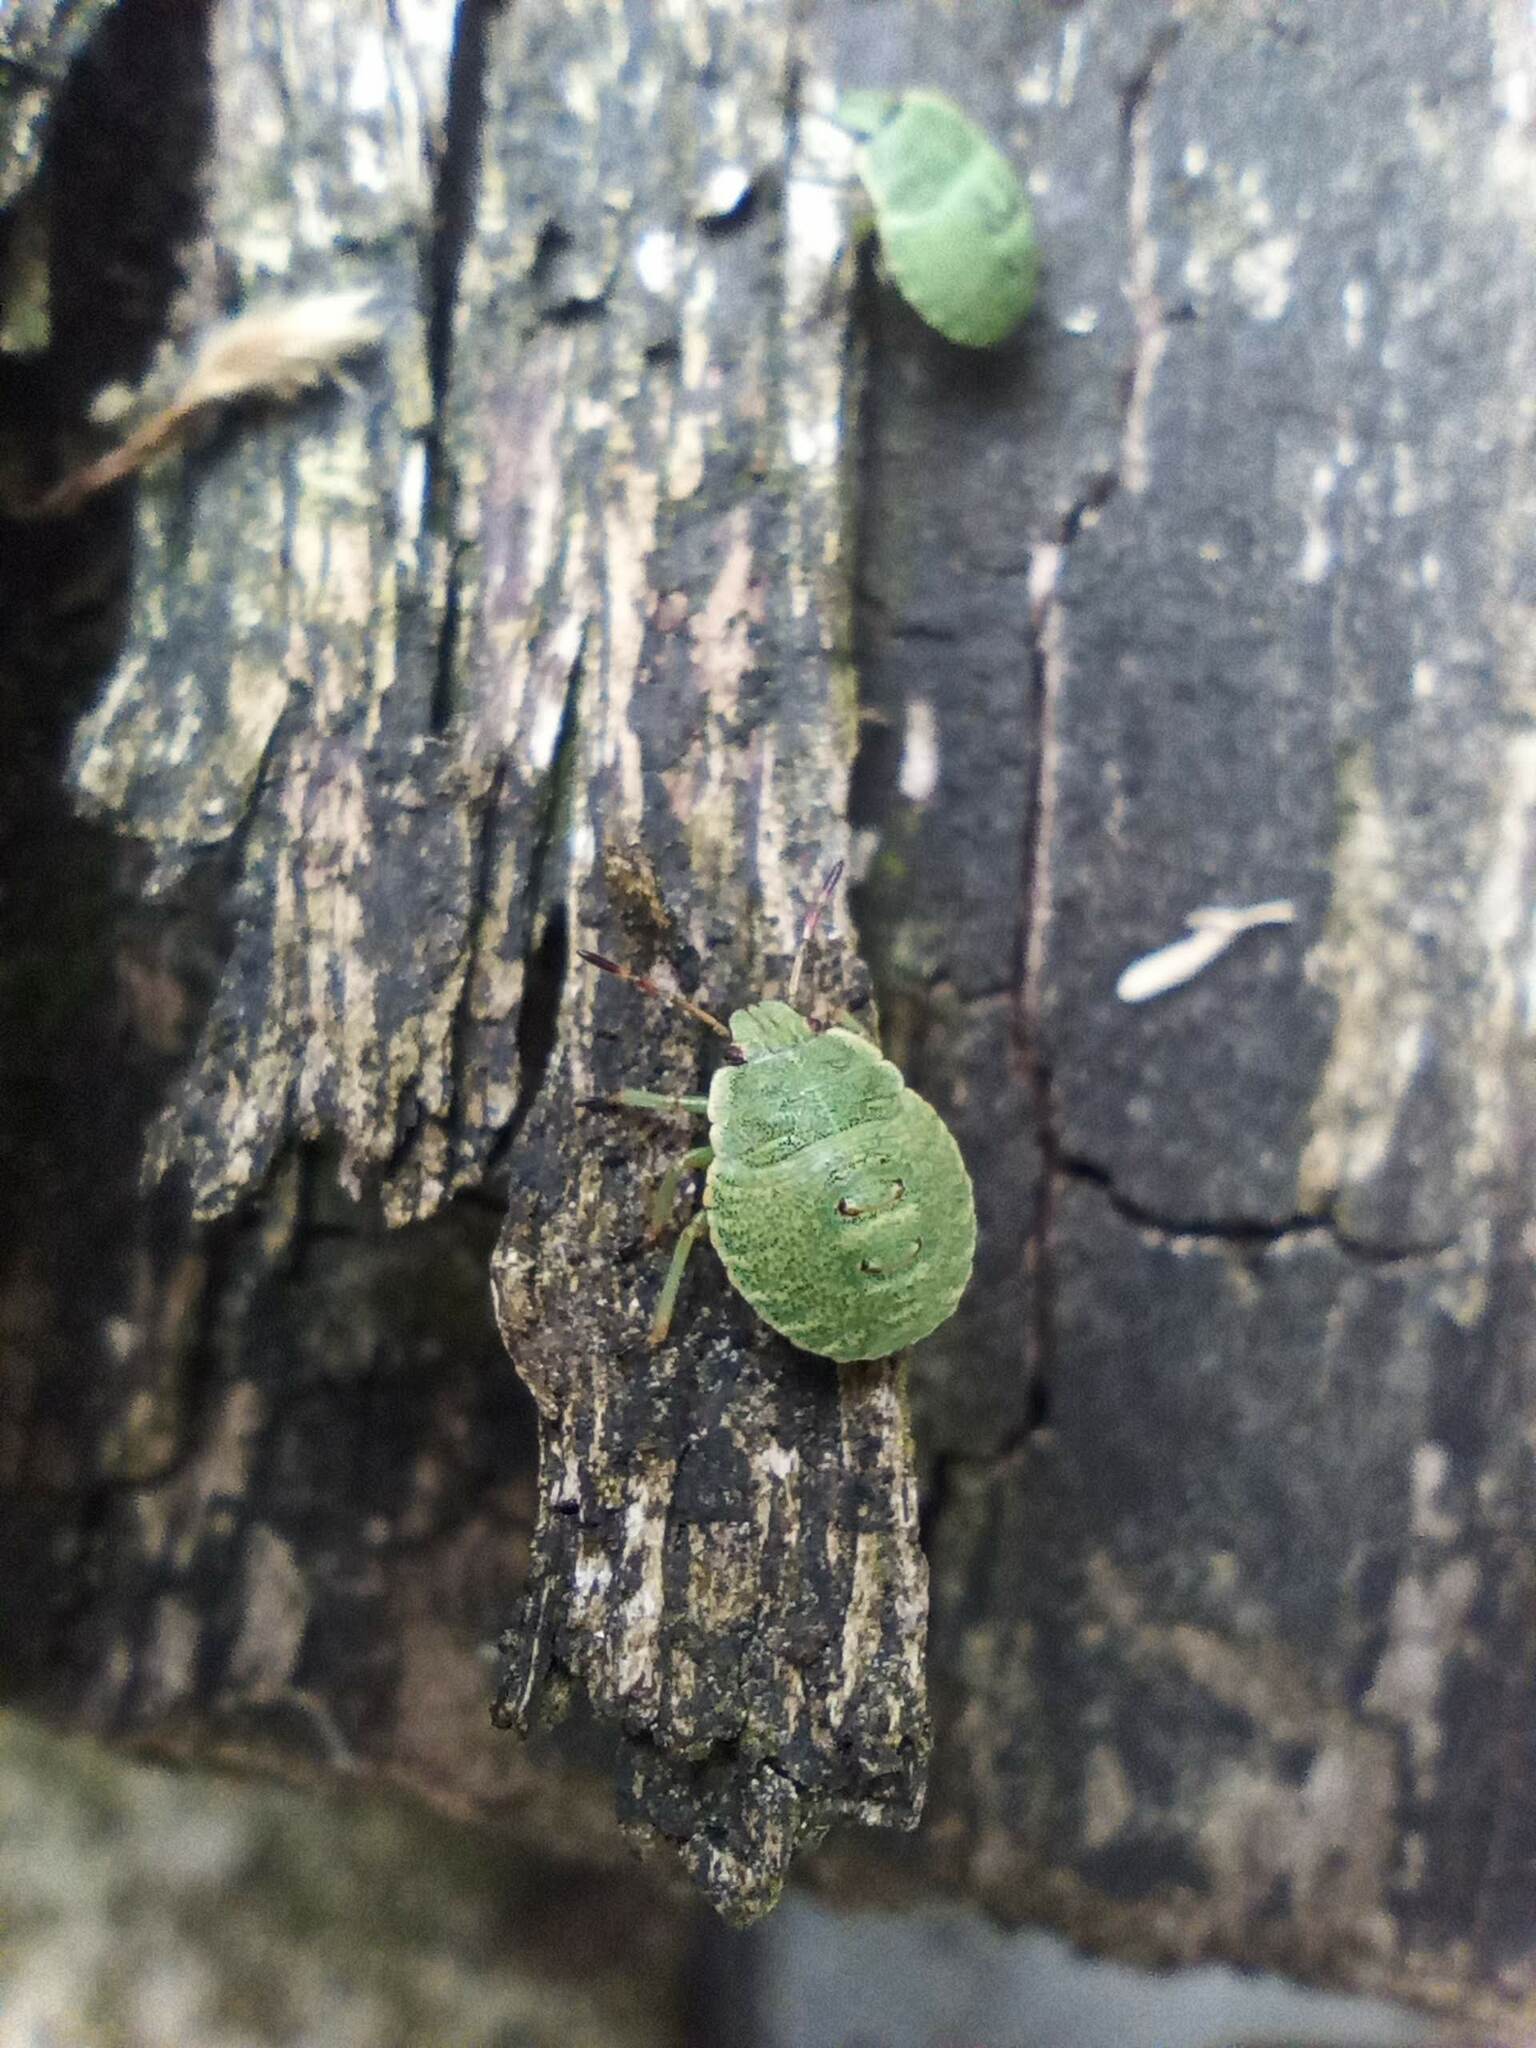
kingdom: Animalia
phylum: Arthropoda
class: Insecta
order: Hemiptera
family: Pentatomidae
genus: Palomena
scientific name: Palomena prasina
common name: Green shieldbug
